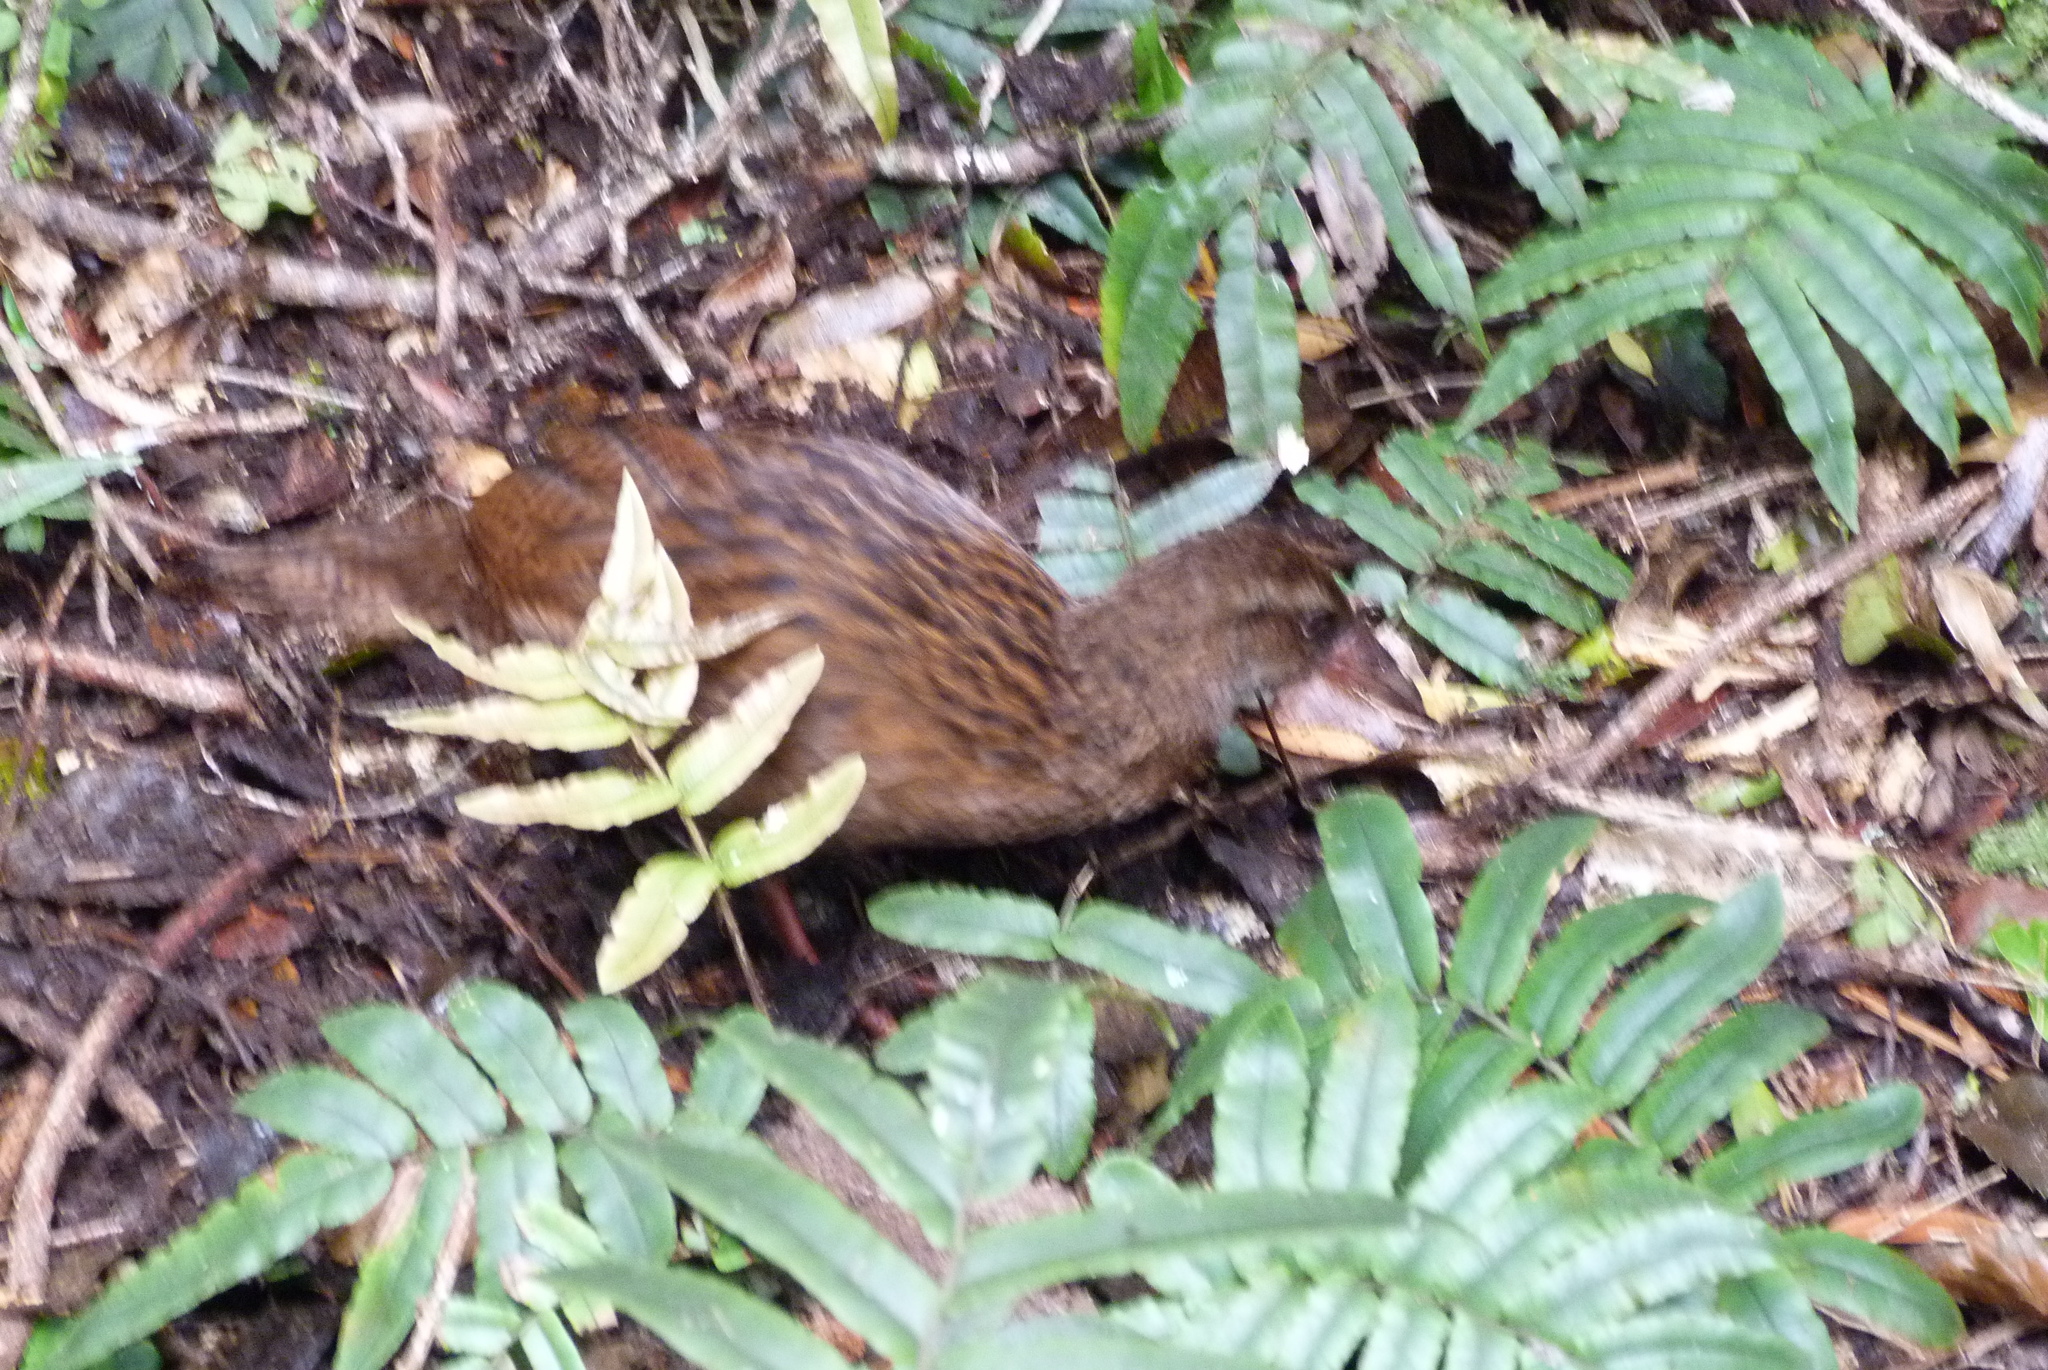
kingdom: Animalia
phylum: Chordata
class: Aves
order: Gruiformes
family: Rallidae
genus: Gallirallus
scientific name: Gallirallus australis
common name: Weka
